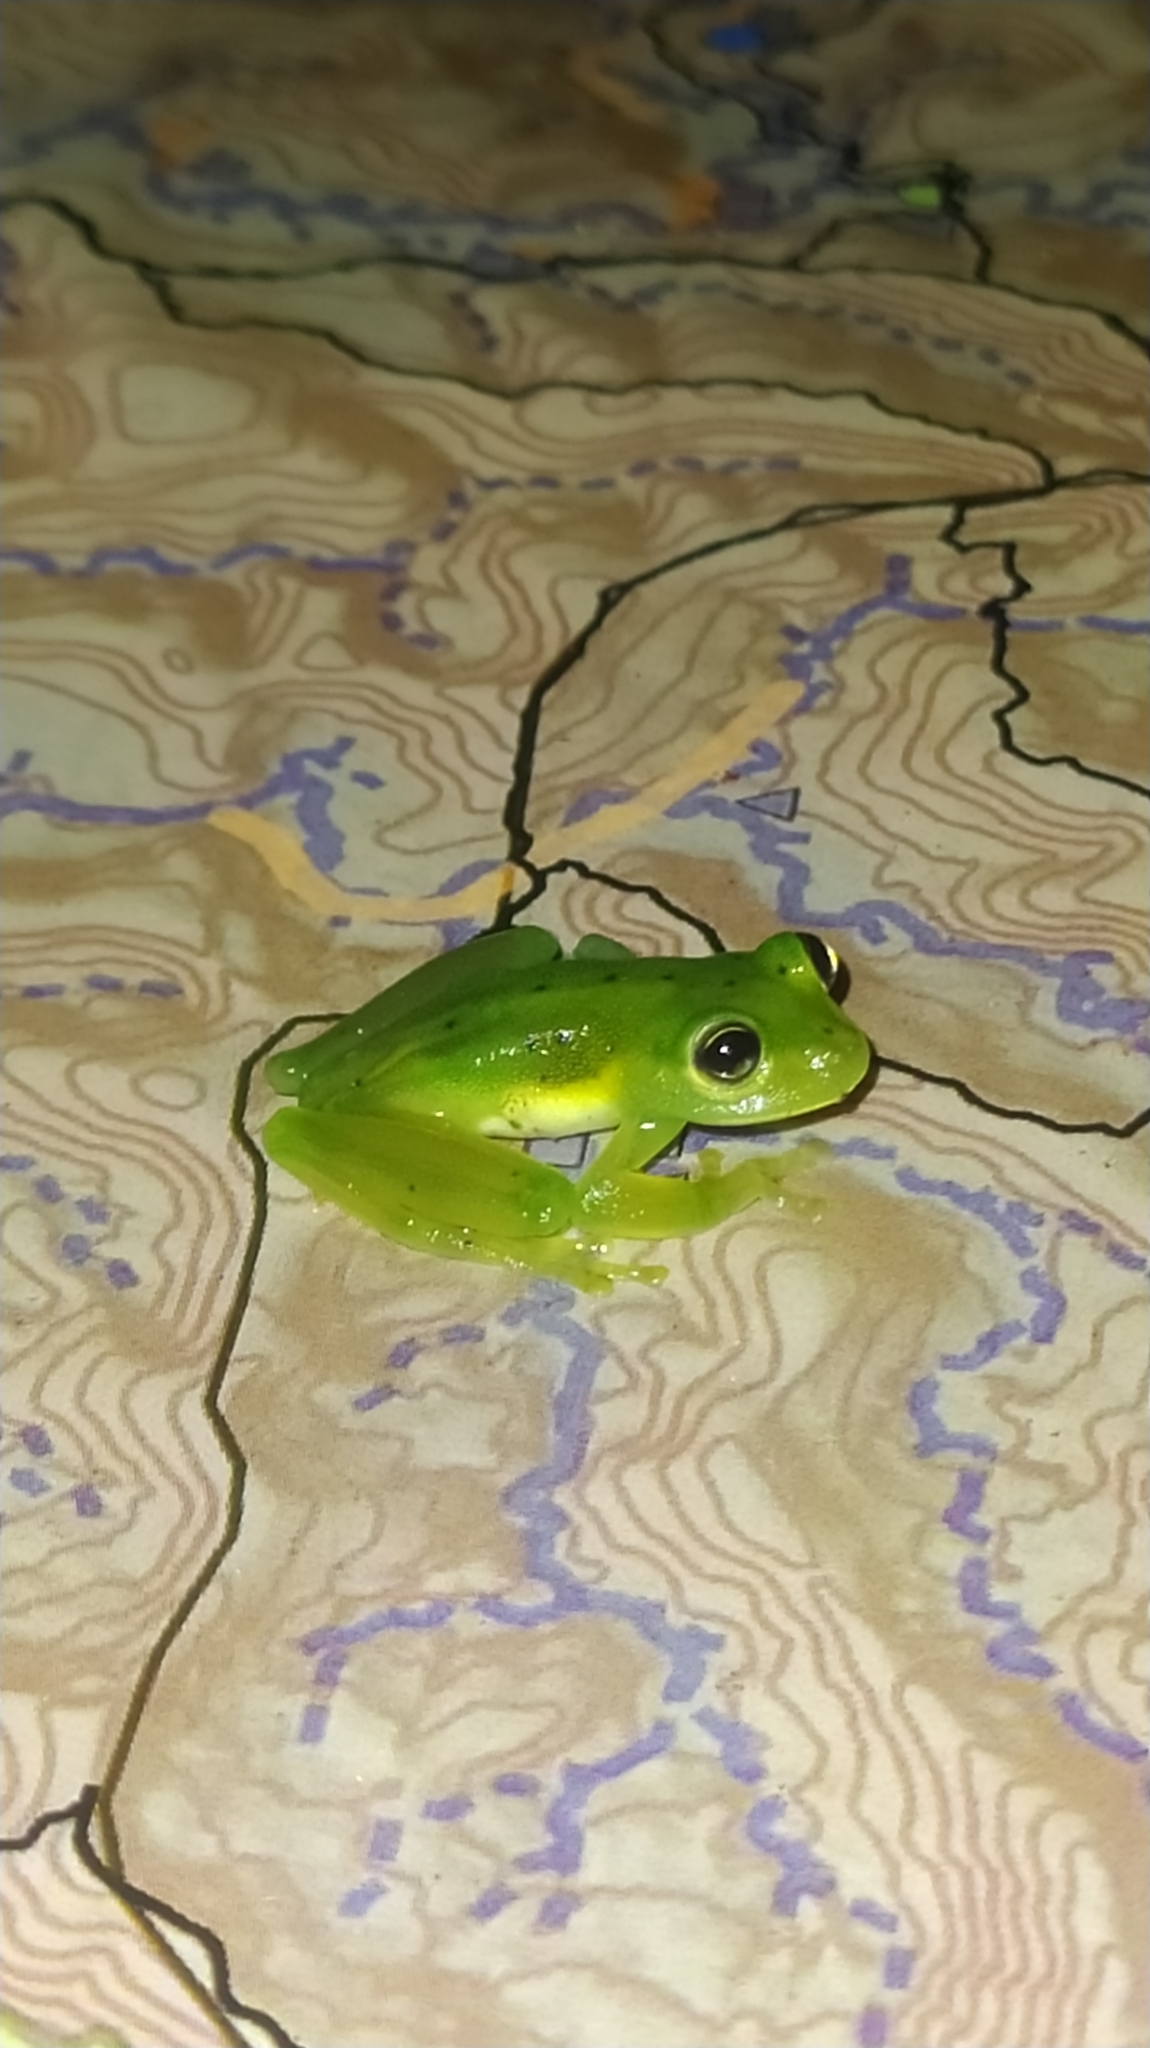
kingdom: Animalia
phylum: Chordata
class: Amphibia
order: Anura
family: Centrolenidae
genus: Vitreorana
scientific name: Vitreorana ritae
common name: Rita's cochran frog
